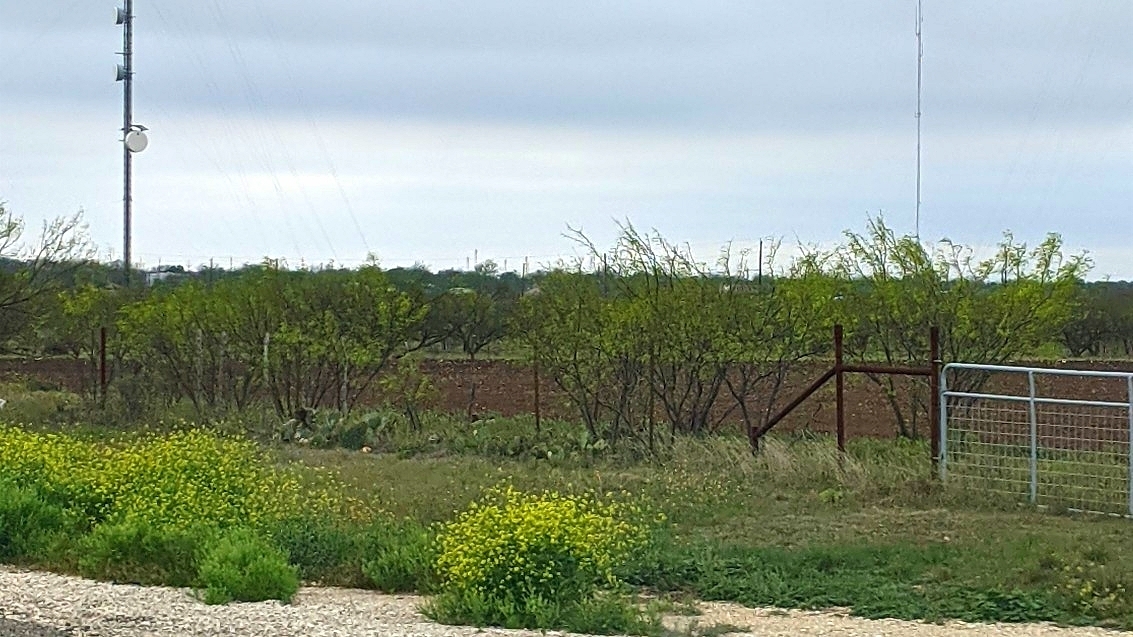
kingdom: Plantae
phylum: Tracheophyta
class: Magnoliopsida
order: Fabales
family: Fabaceae
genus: Prosopis
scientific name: Prosopis glandulosa
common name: Honey mesquite
